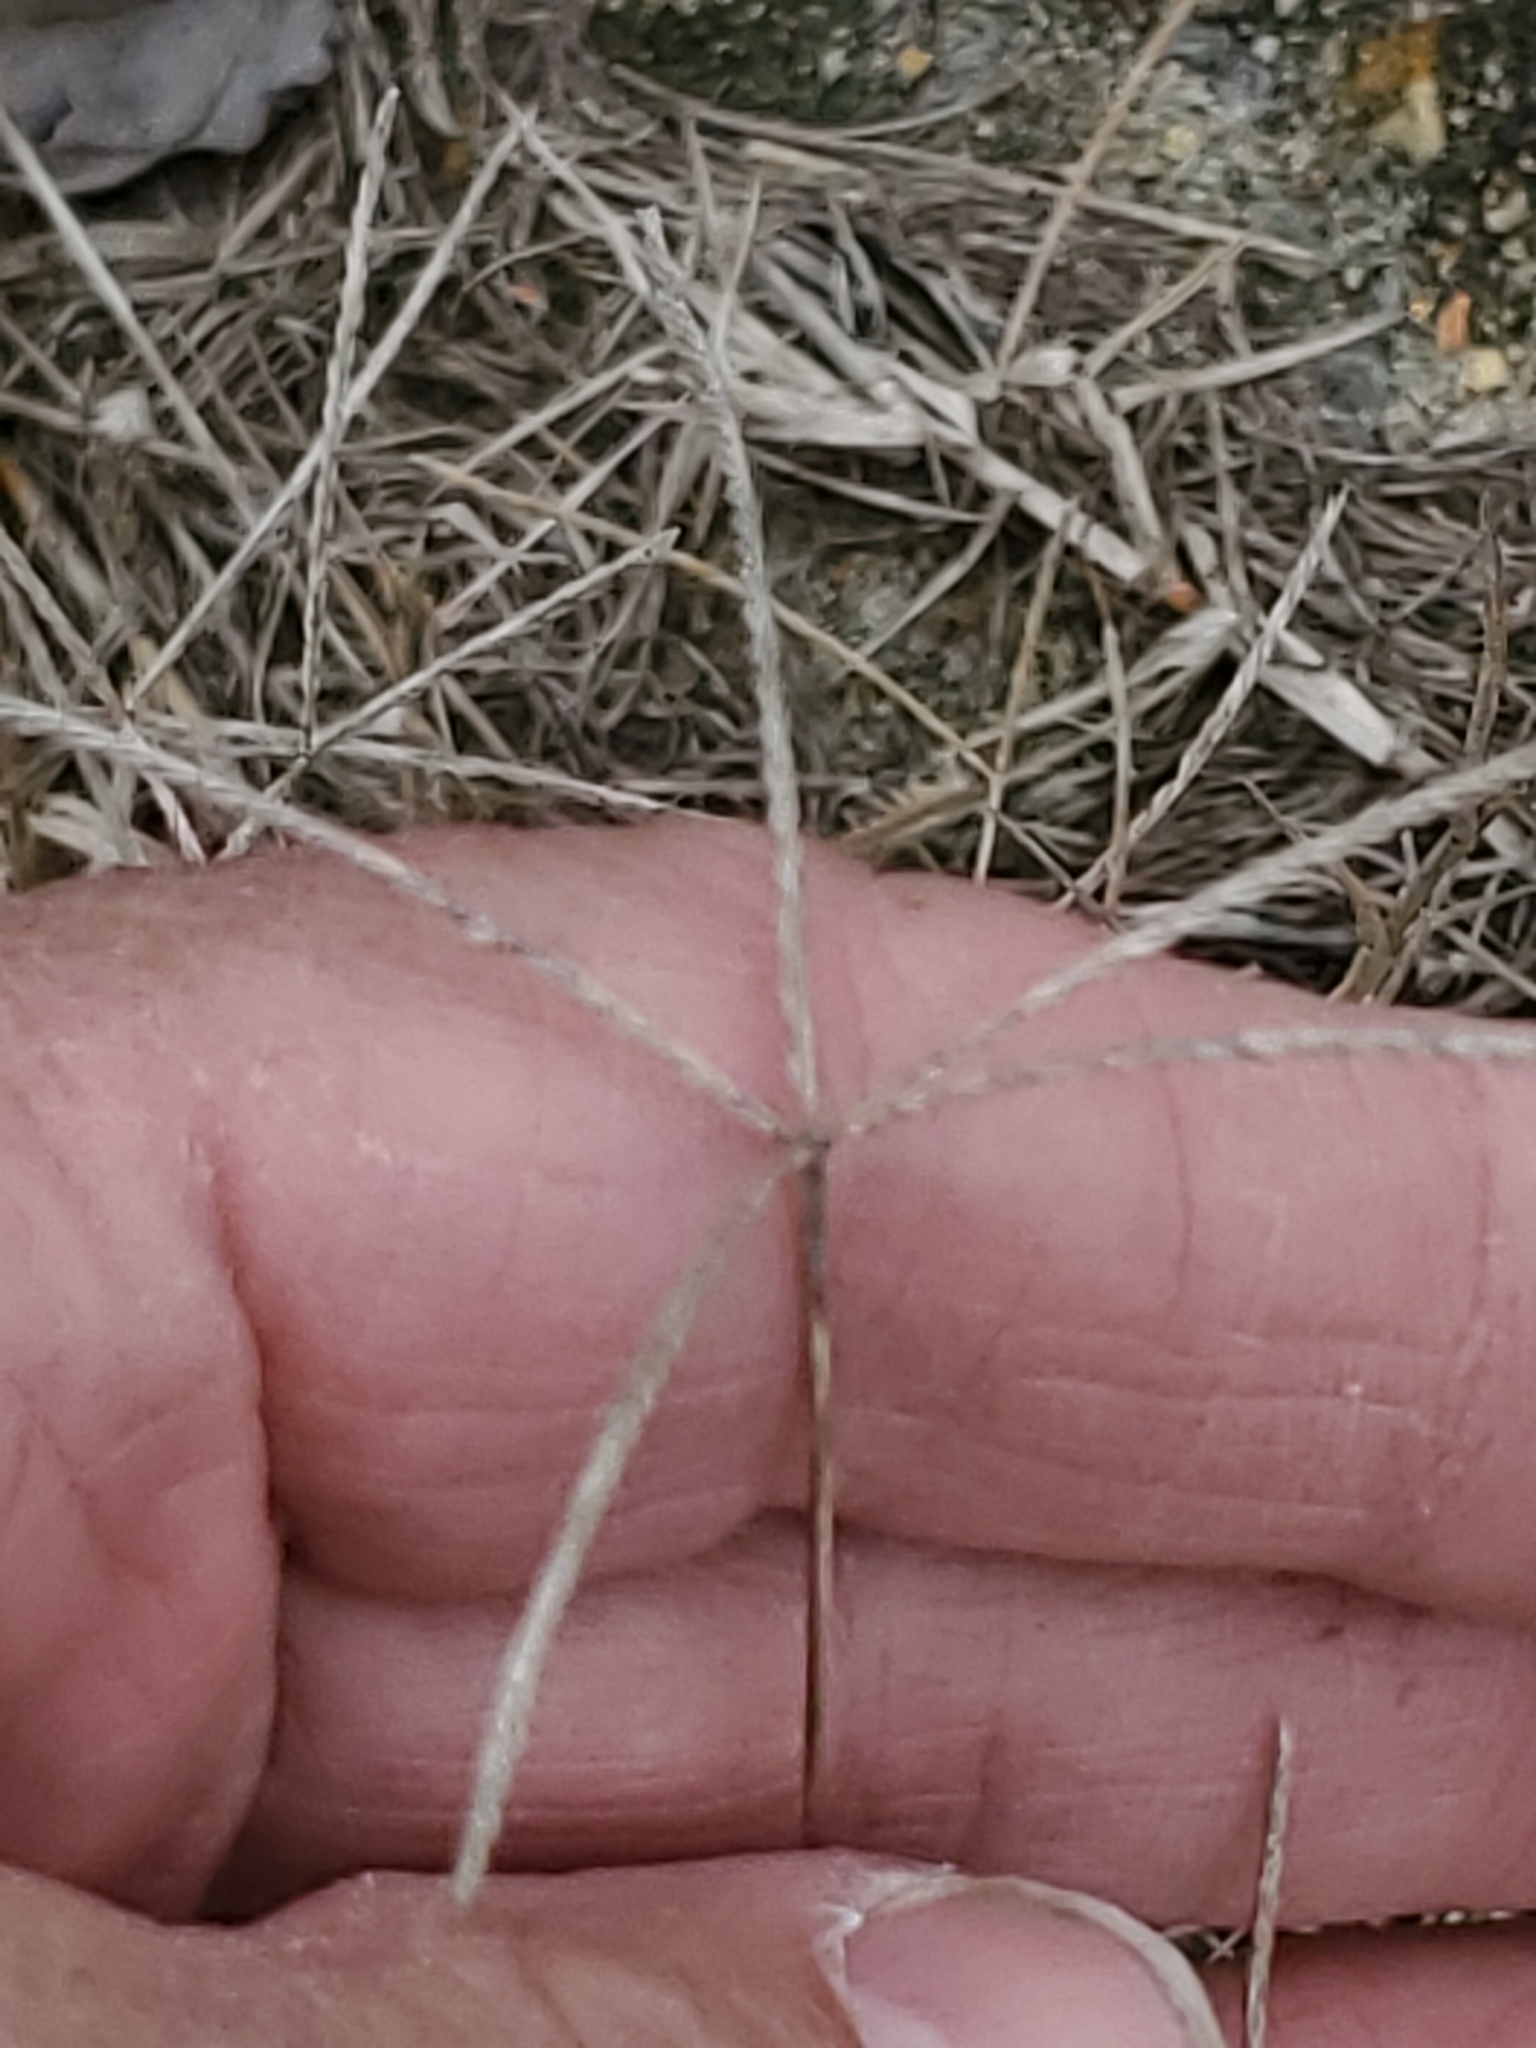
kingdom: Plantae
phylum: Tracheophyta
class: Liliopsida
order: Poales
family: Poaceae
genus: Cynodon
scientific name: Cynodon dactylon
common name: Bermuda grass
